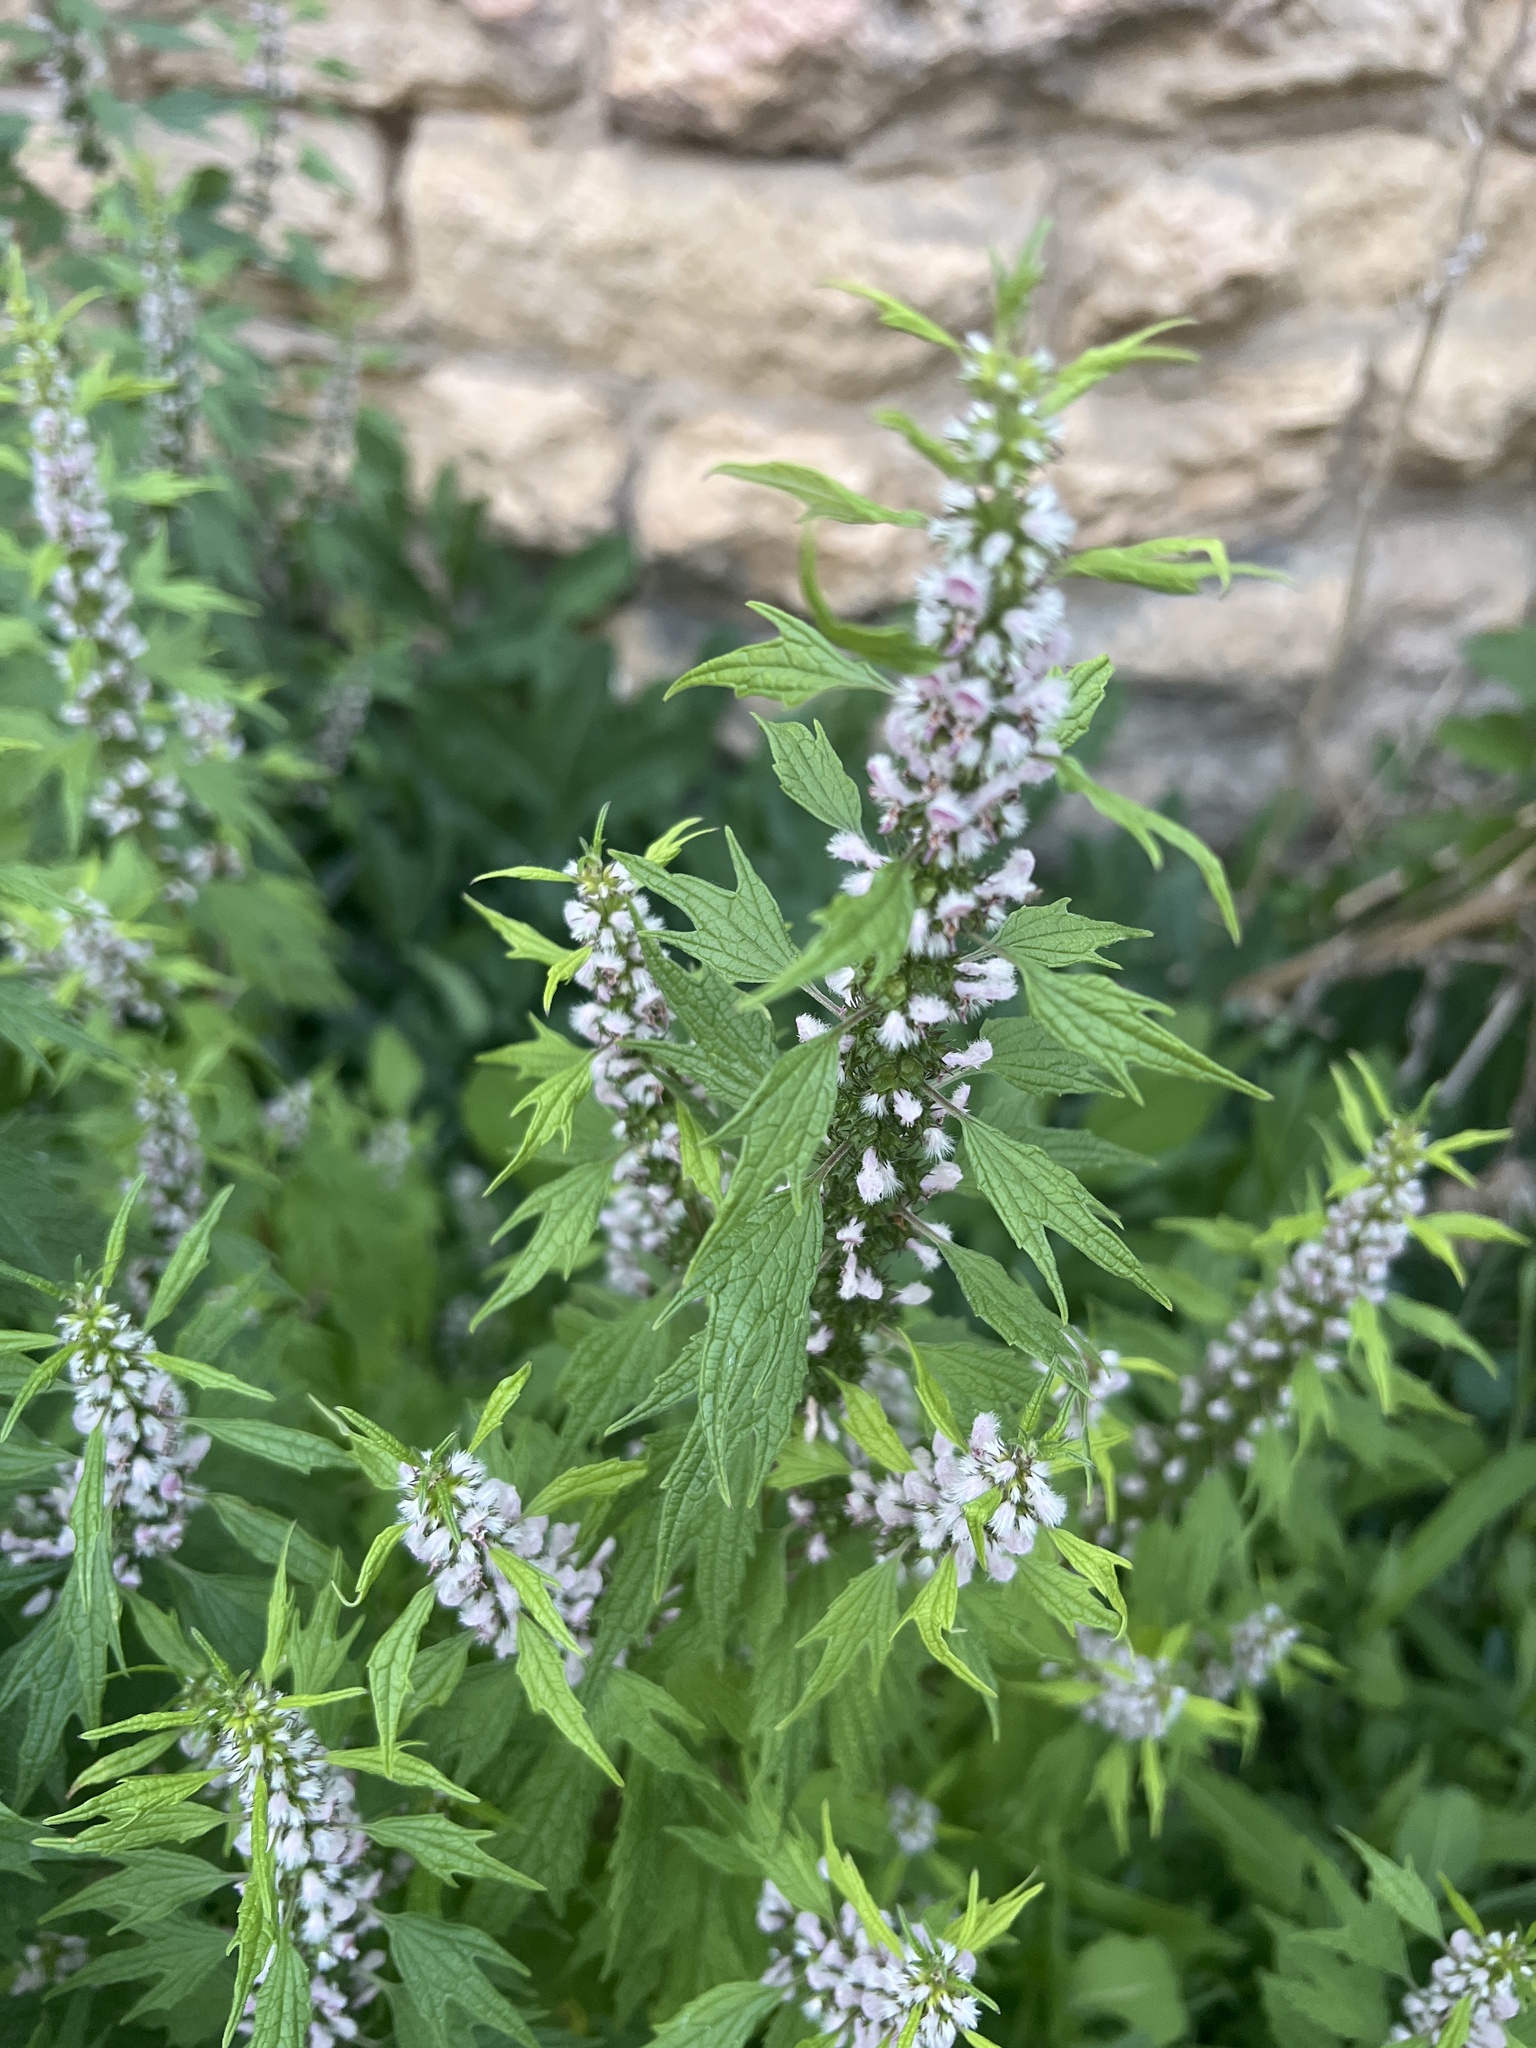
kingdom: Plantae
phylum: Tracheophyta
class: Magnoliopsida
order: Lamiales
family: Lamiaceae
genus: Leonurus
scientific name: Leonurus cardiaca
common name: Motherwort
